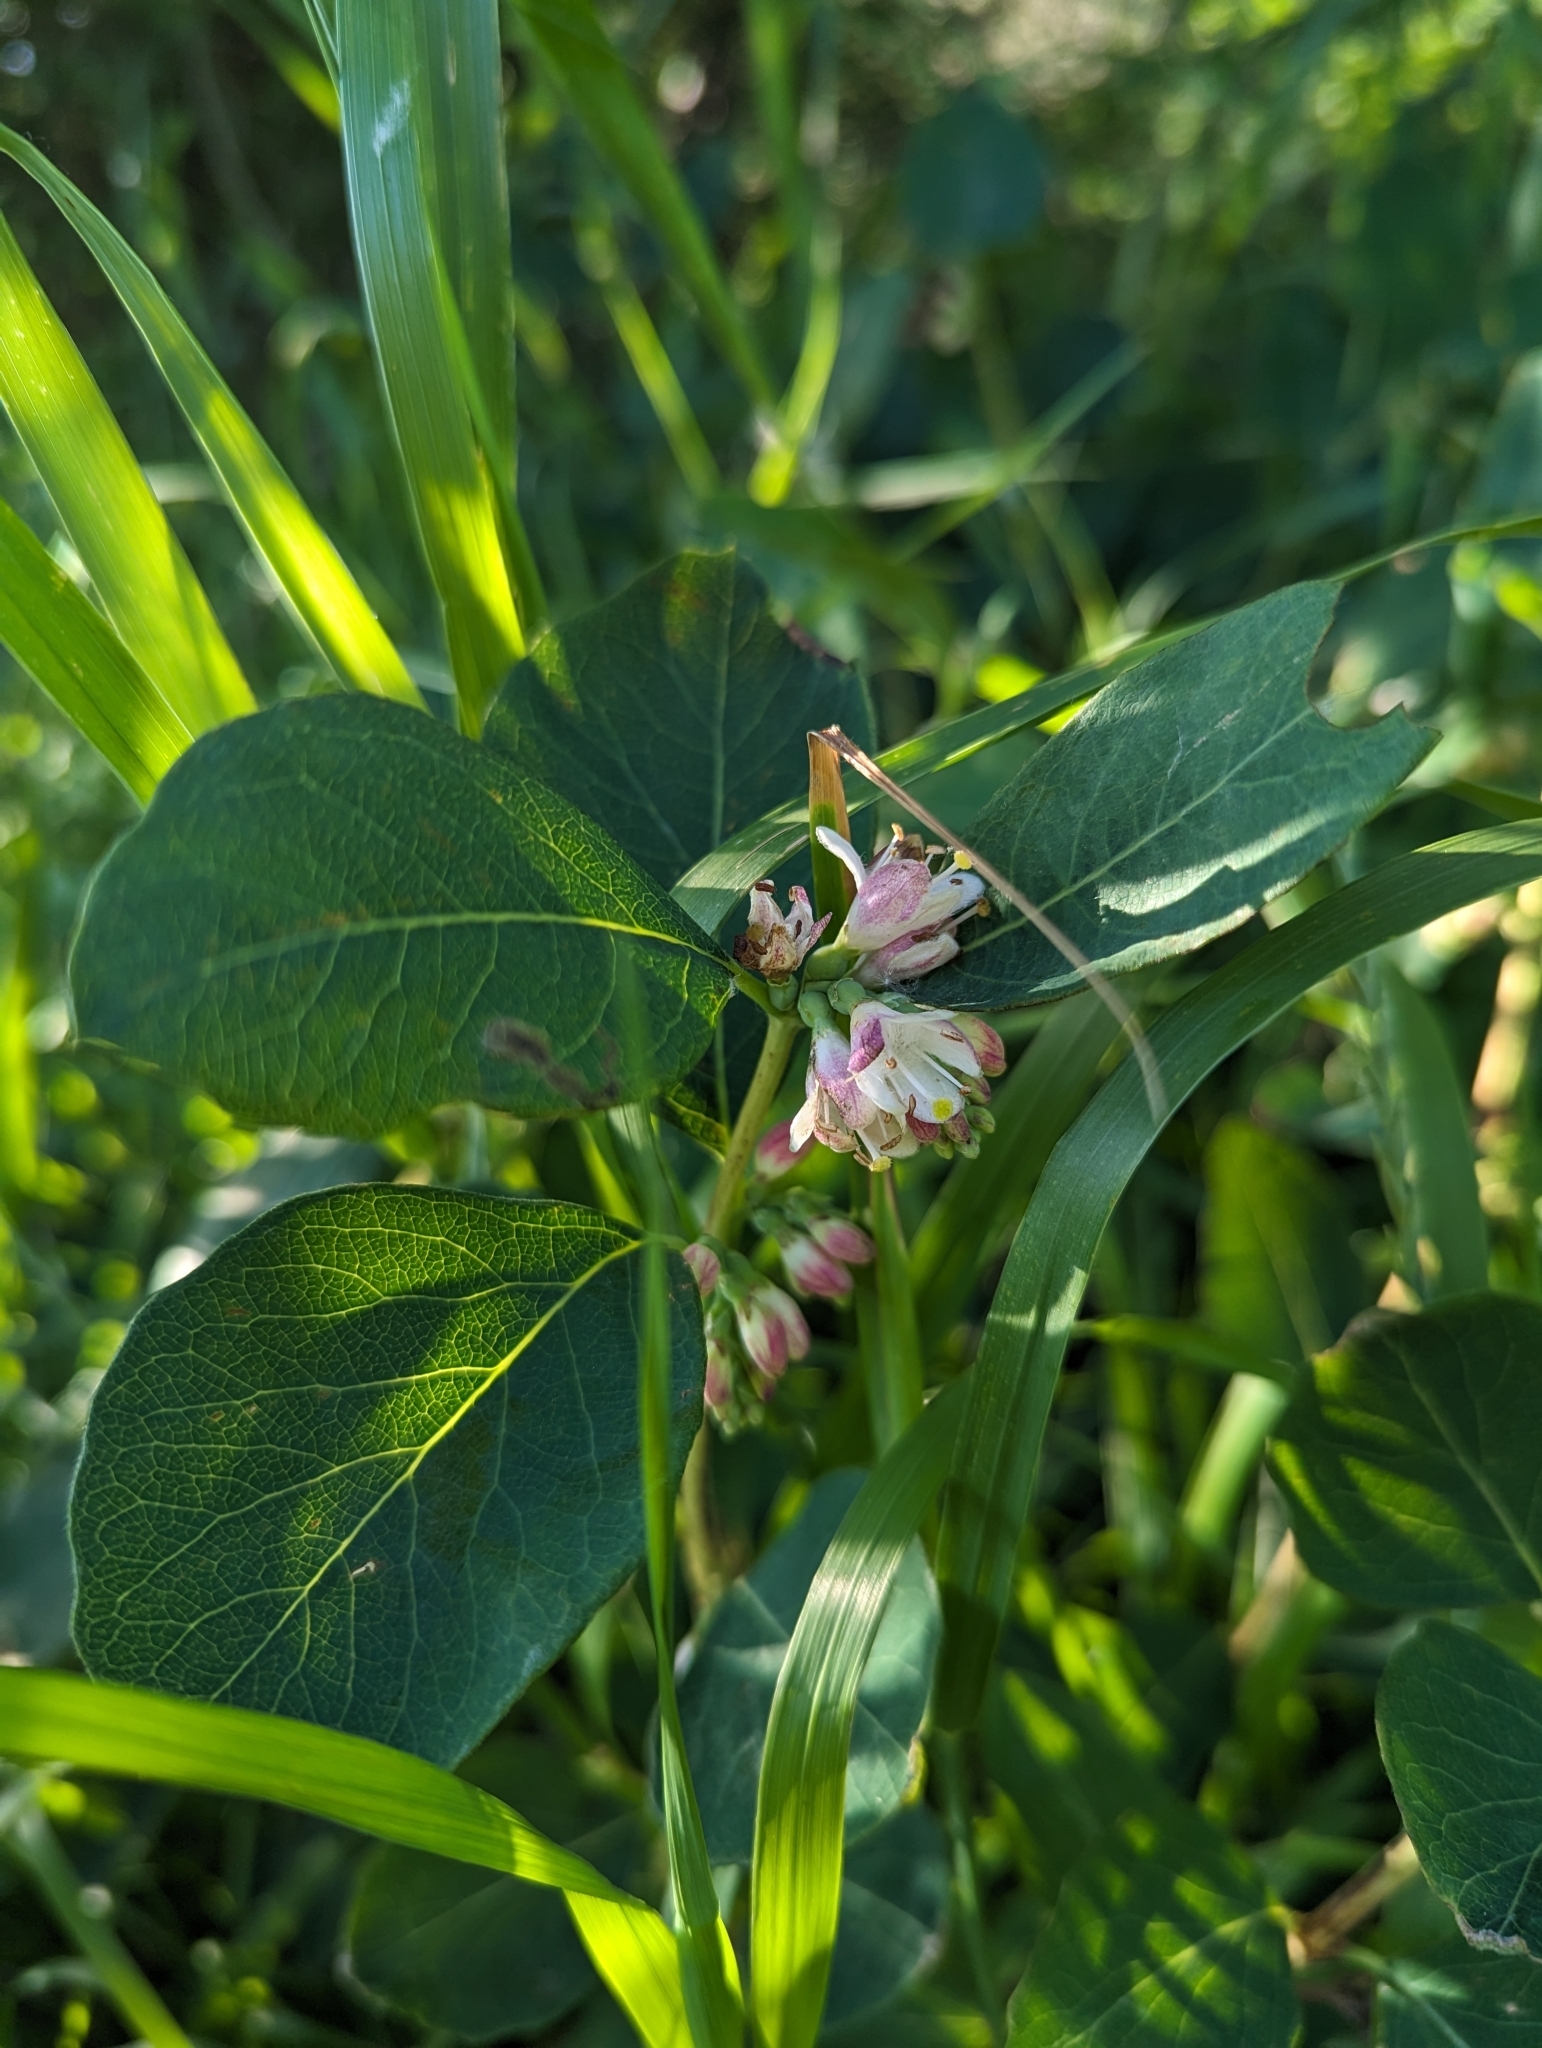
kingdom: Plantae
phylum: Tracheophyta
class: Magnoliopsida
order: Dipsacales
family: Caprifoliaceae
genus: Symphoricarpos
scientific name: Symphoricarpos occidentalis
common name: Wolfberry
